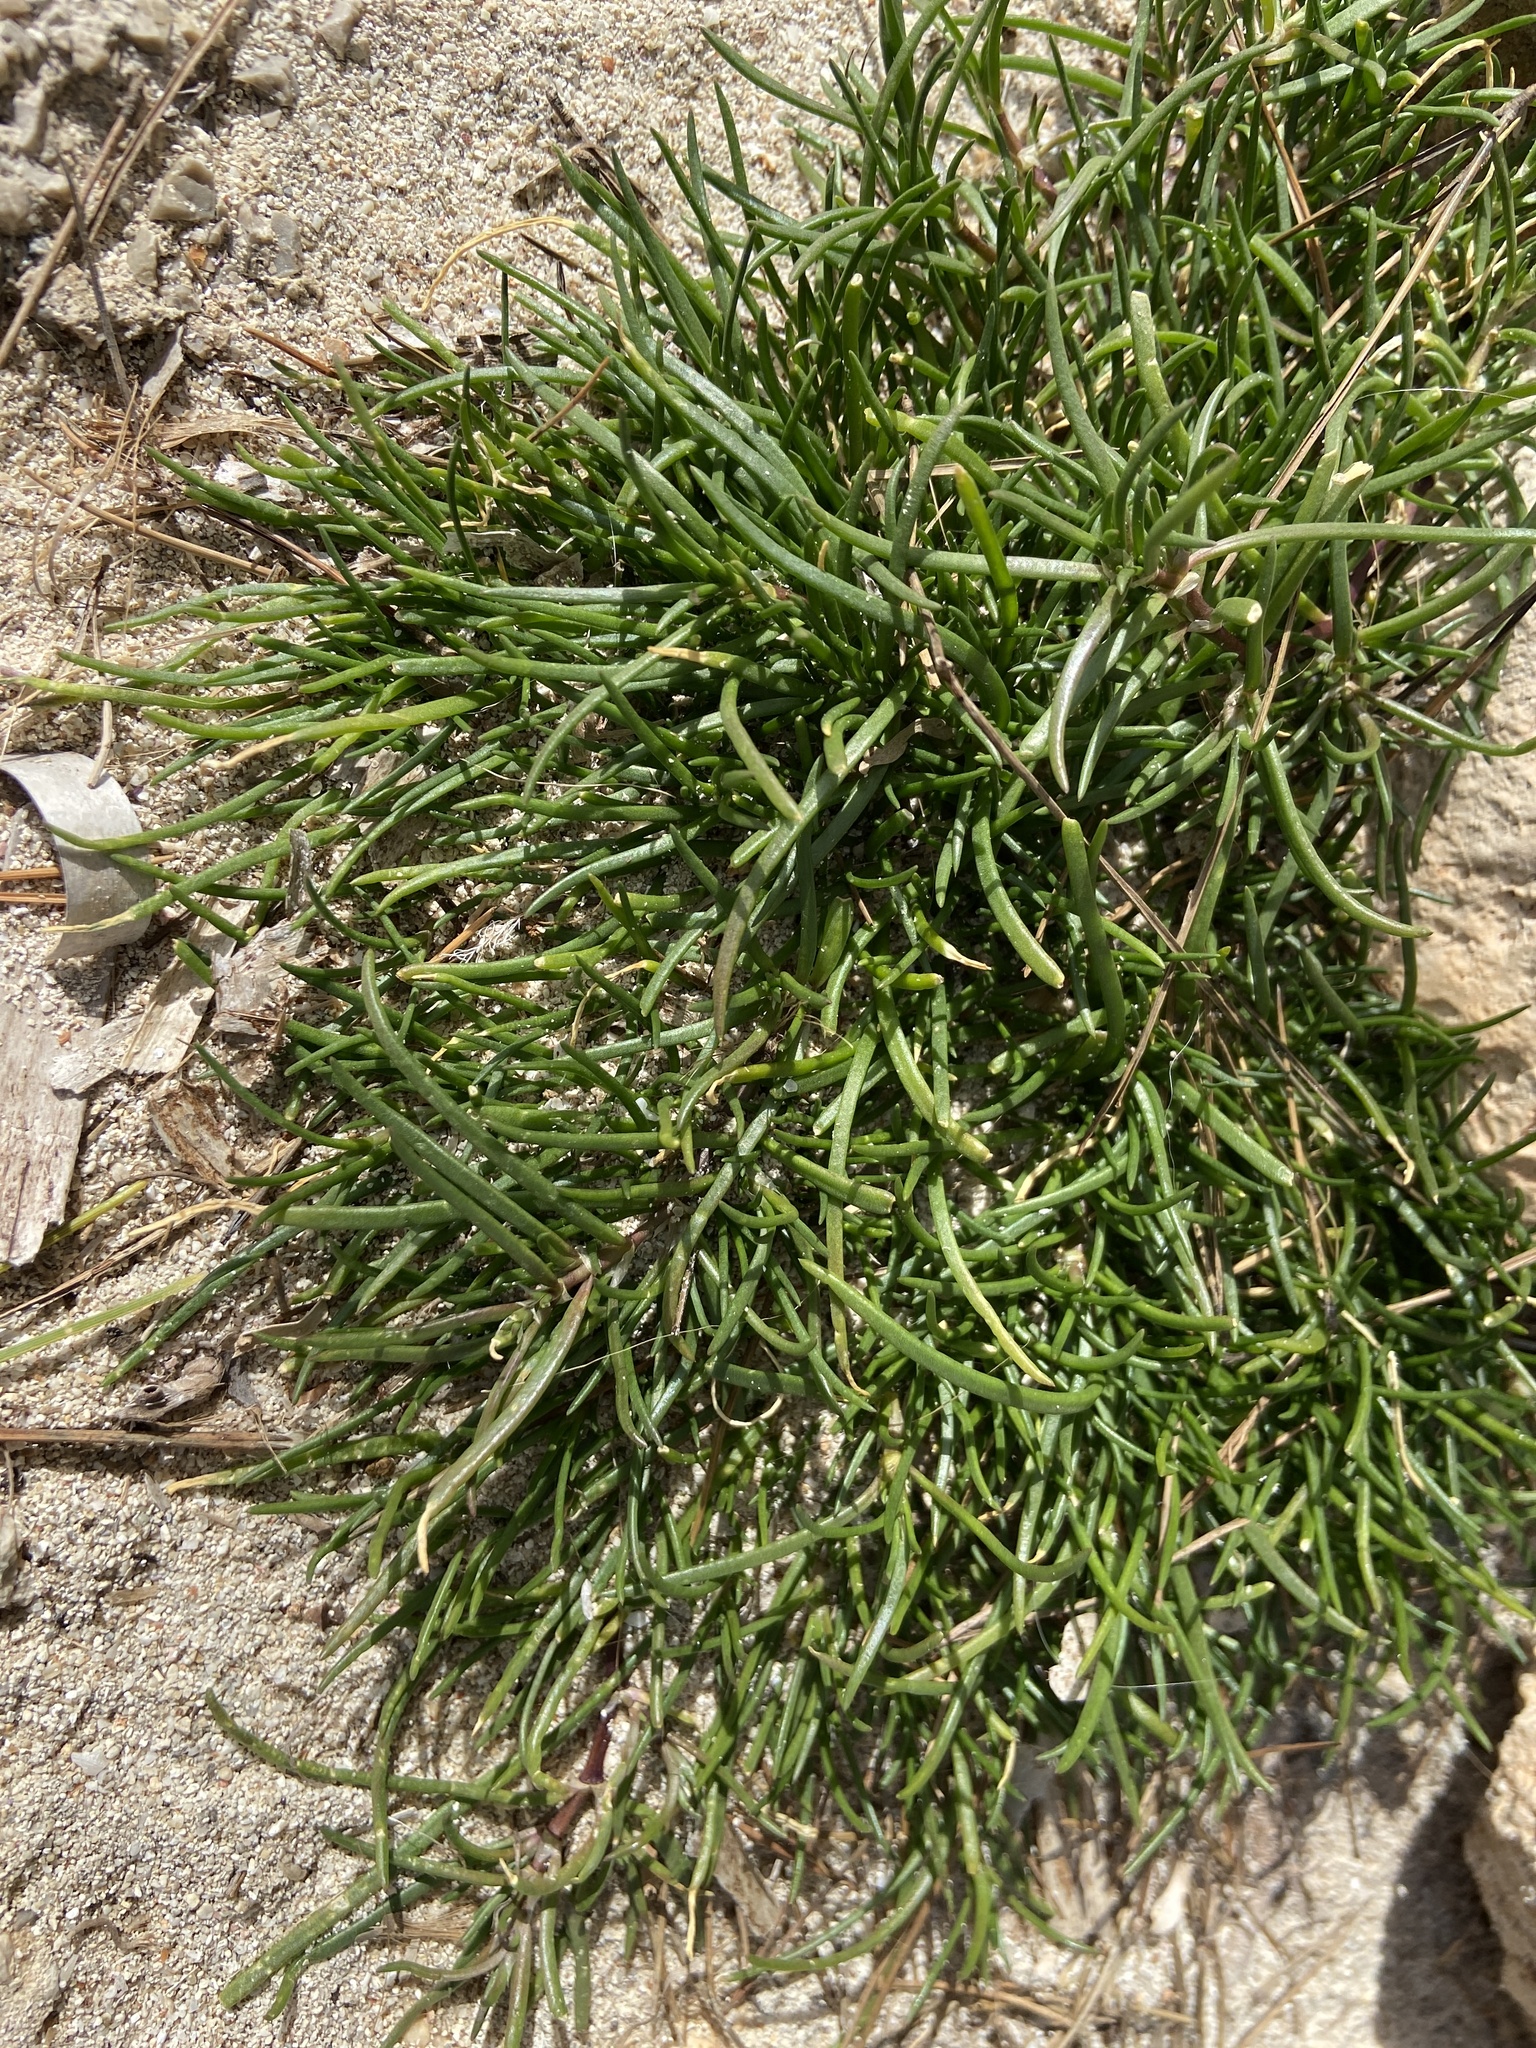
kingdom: Plantae
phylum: Tracheophyta
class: Magnoliopsida
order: Lamiales
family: Plantaginaceae
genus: Plantago
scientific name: Plantago crassifolia
